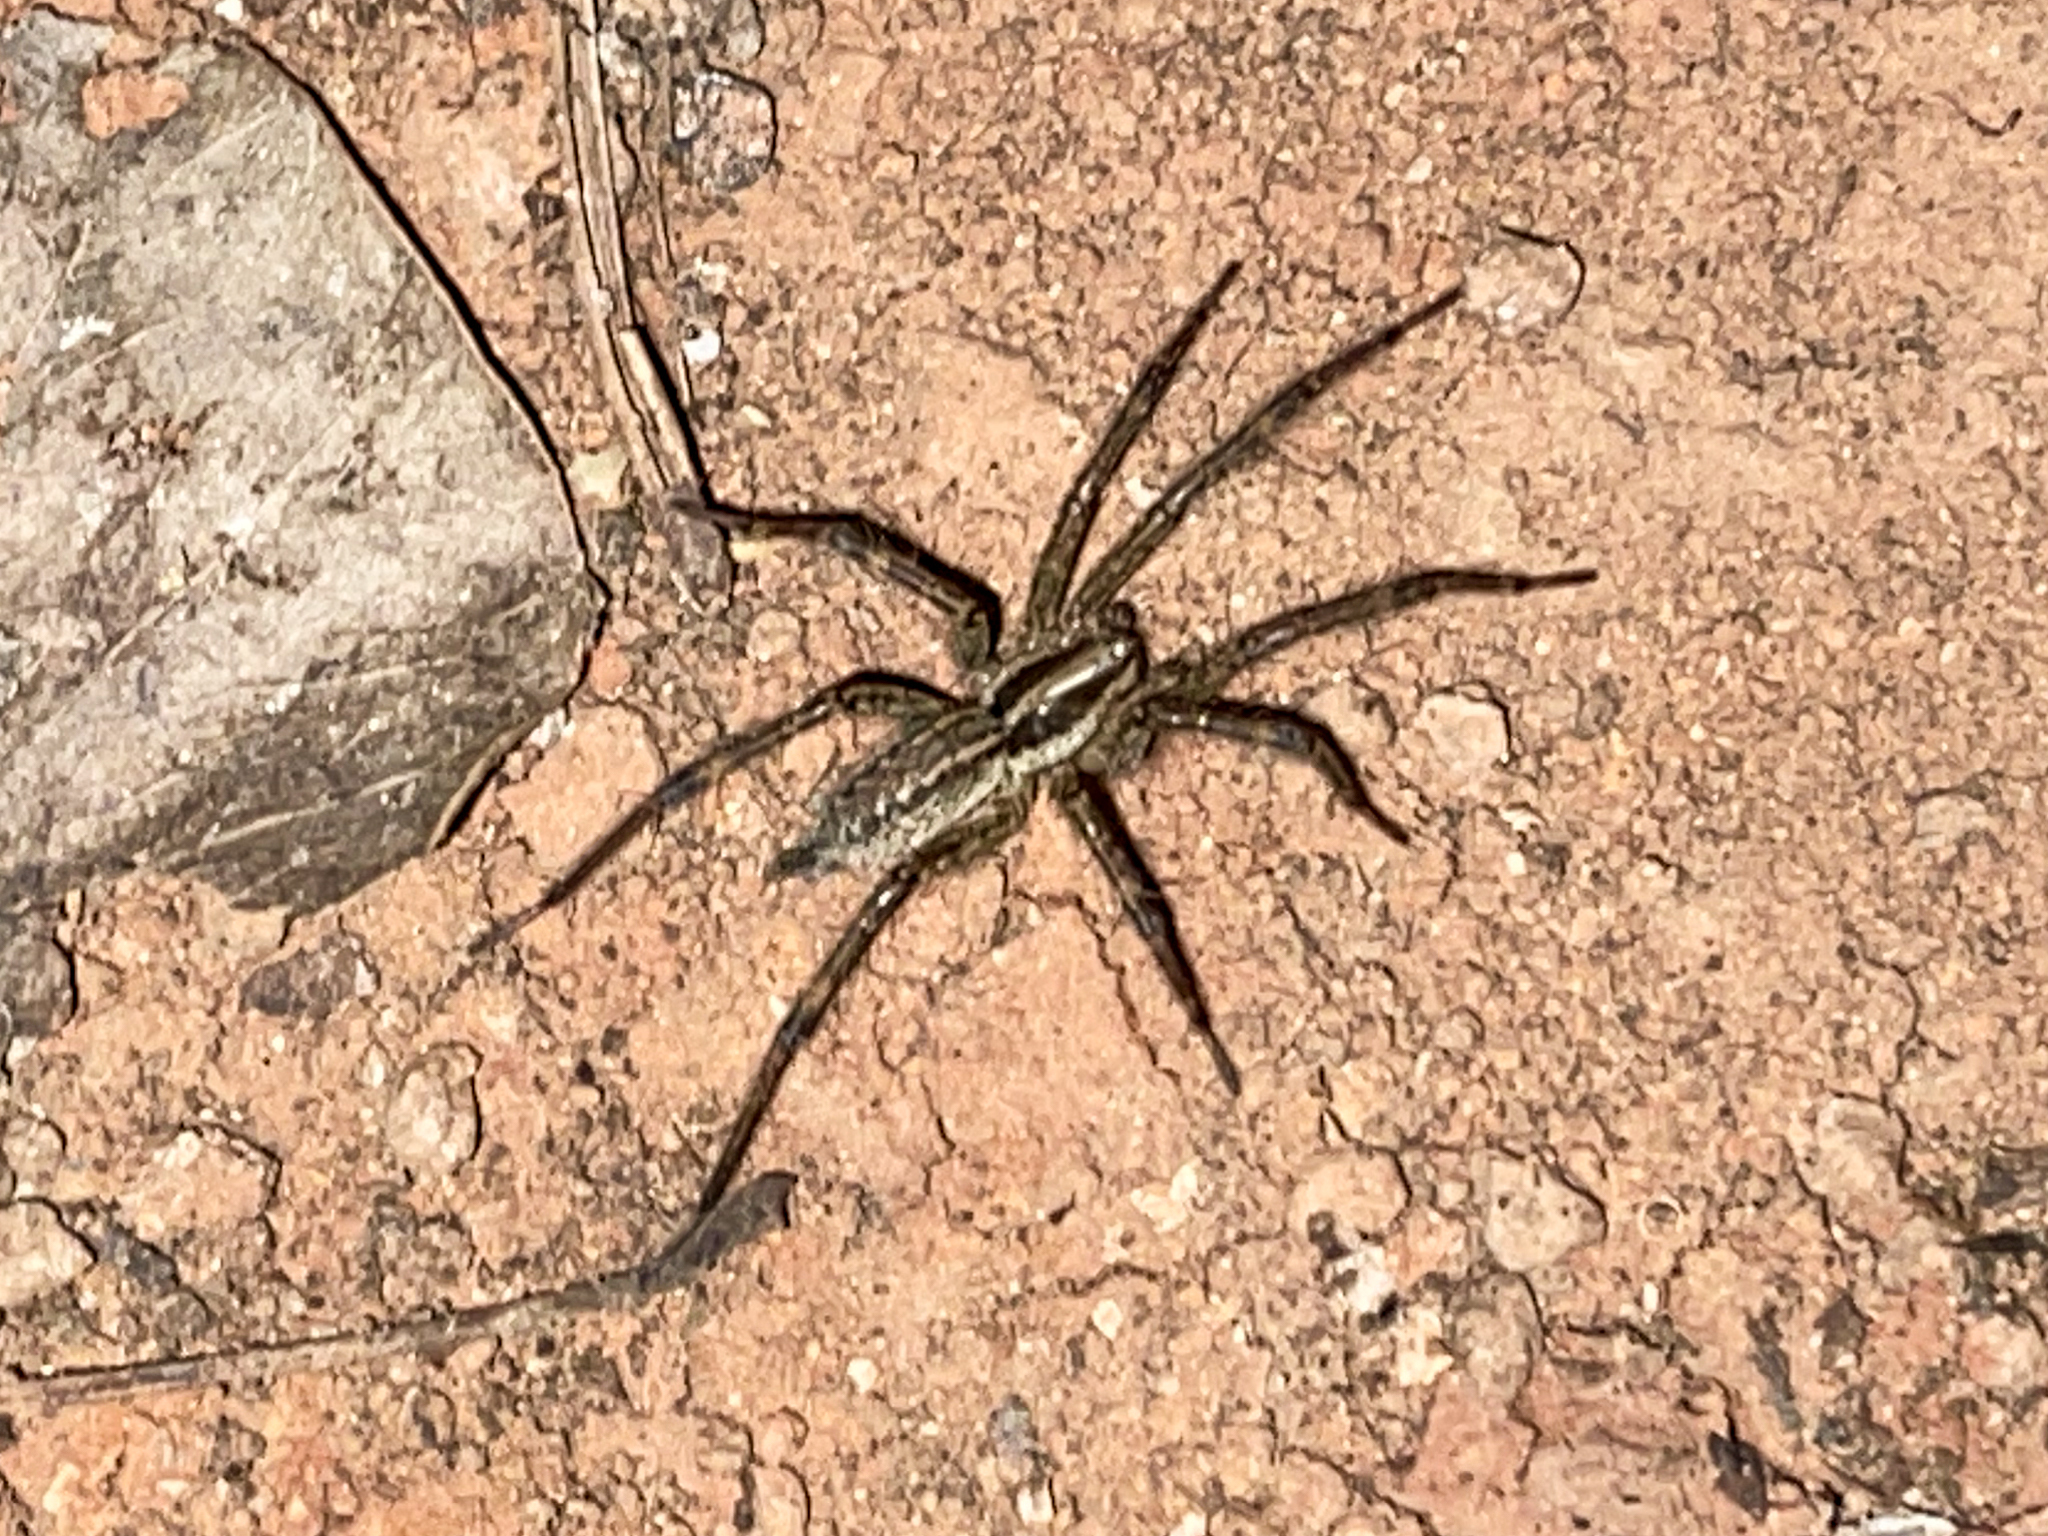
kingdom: Animalia
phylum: Arthropoda
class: Arachnida
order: Araneae
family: Agelenidae
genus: Agelenopsis
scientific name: Agelenopsis
